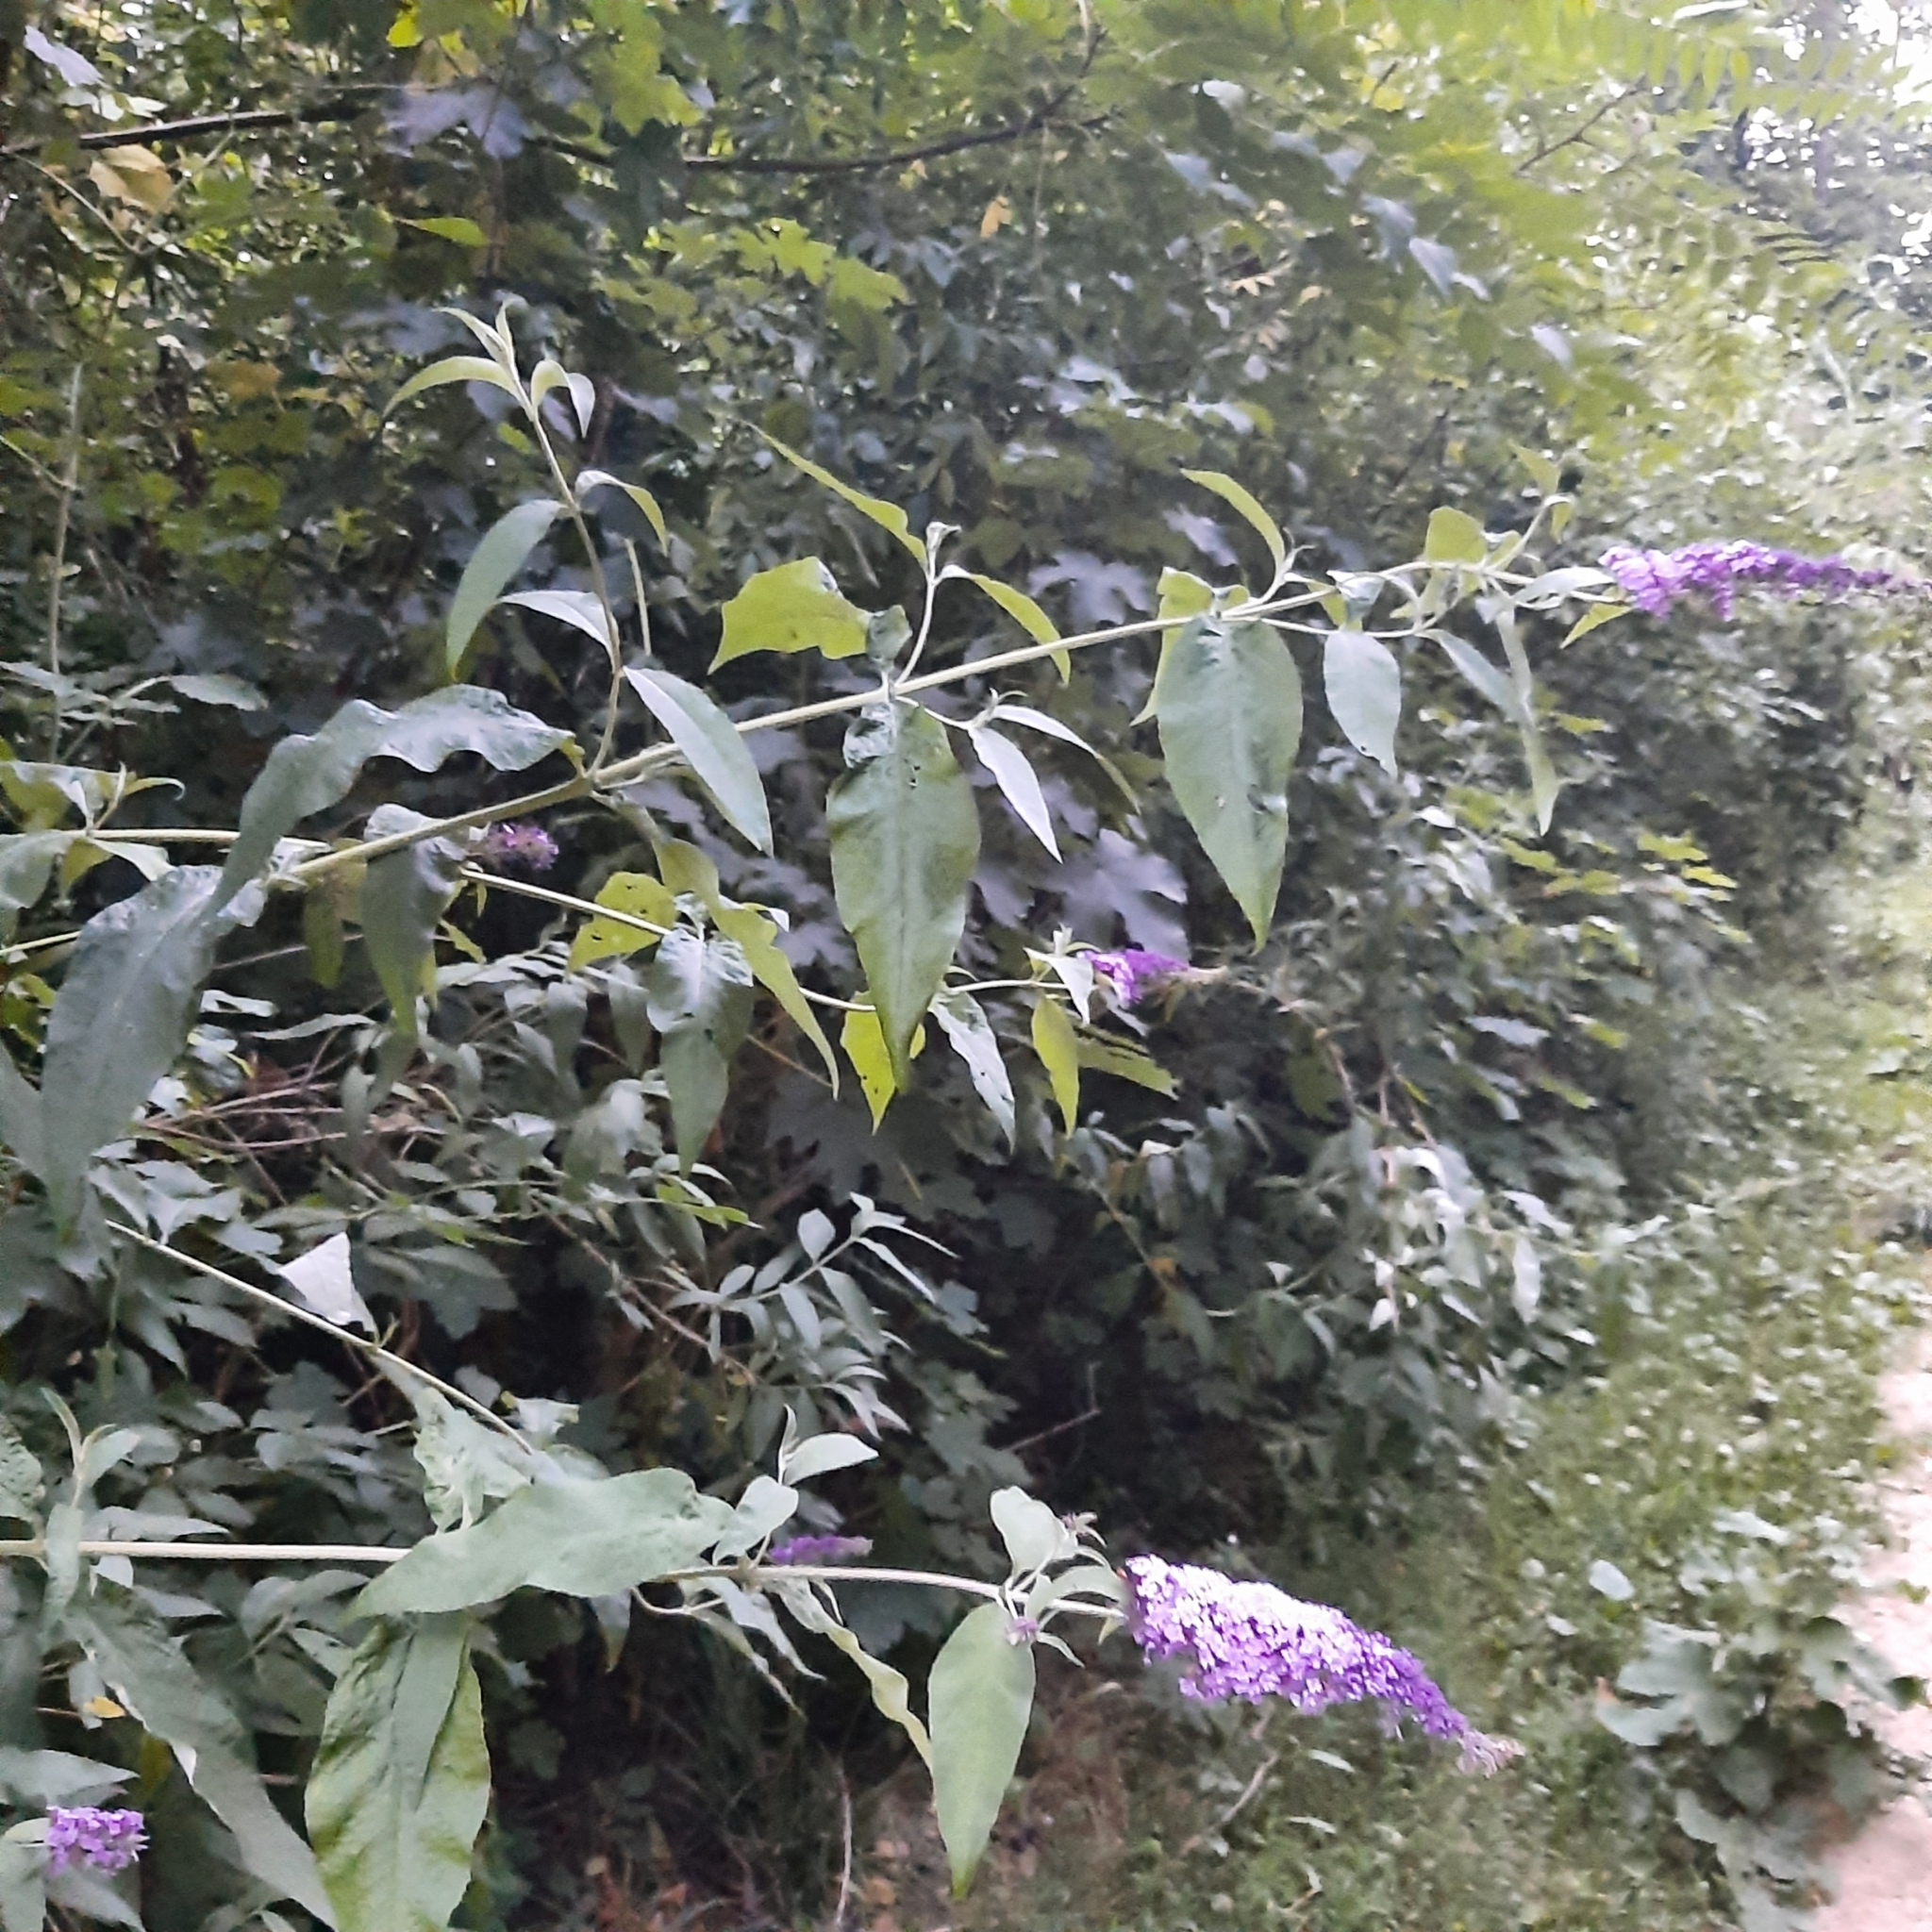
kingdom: Plantae
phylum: Tracheophyta
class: Magnoliopsida
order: Lamiales
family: Scrophulariaceae
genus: Buddleja
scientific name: Buddleja davidii
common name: Butterfly-bush
